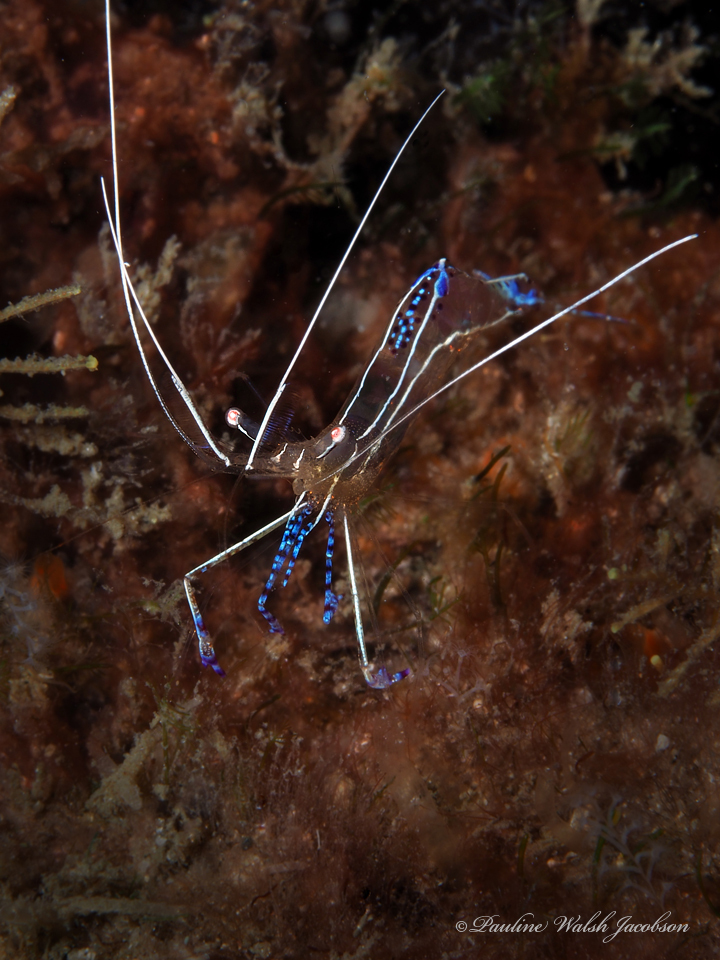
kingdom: Animalia
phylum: Arthropoda
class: Malacostraca
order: Decapoda
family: Palaemonidae
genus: Ancylomenes
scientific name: Ancylomenes pedersoni
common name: Pederson's cleaning shrimp
